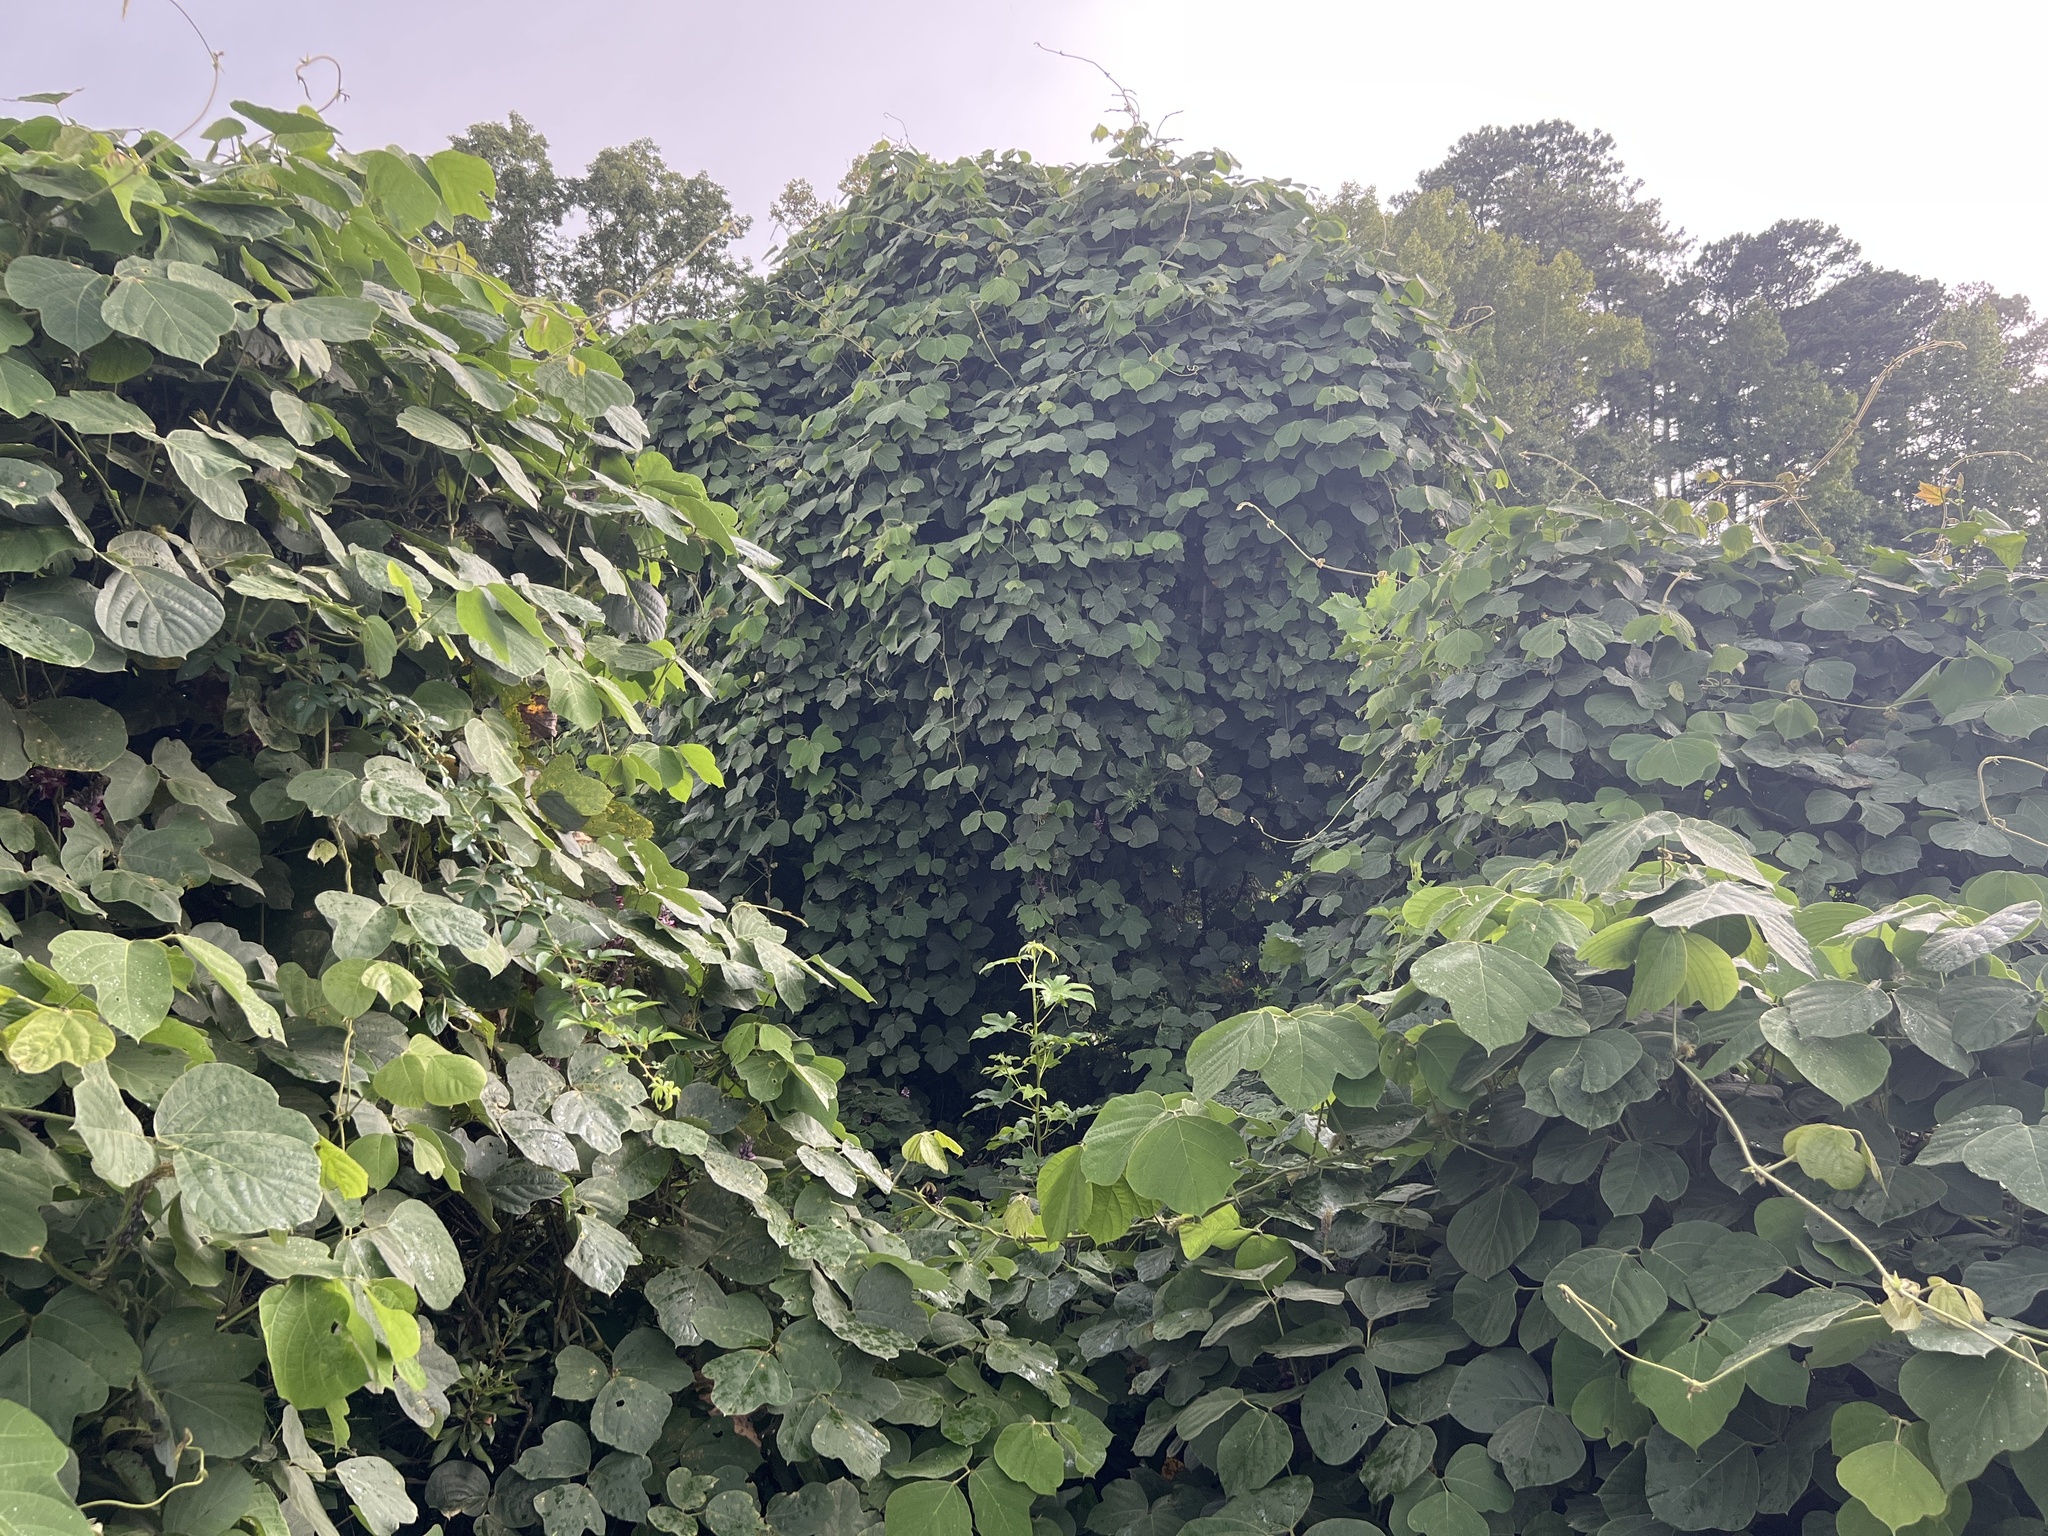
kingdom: Plantae
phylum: Tracheophyta
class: Magnoliopsida
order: Fabales
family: Fabaceae
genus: Pueraria
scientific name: Pueraria montana
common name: Kudzu
